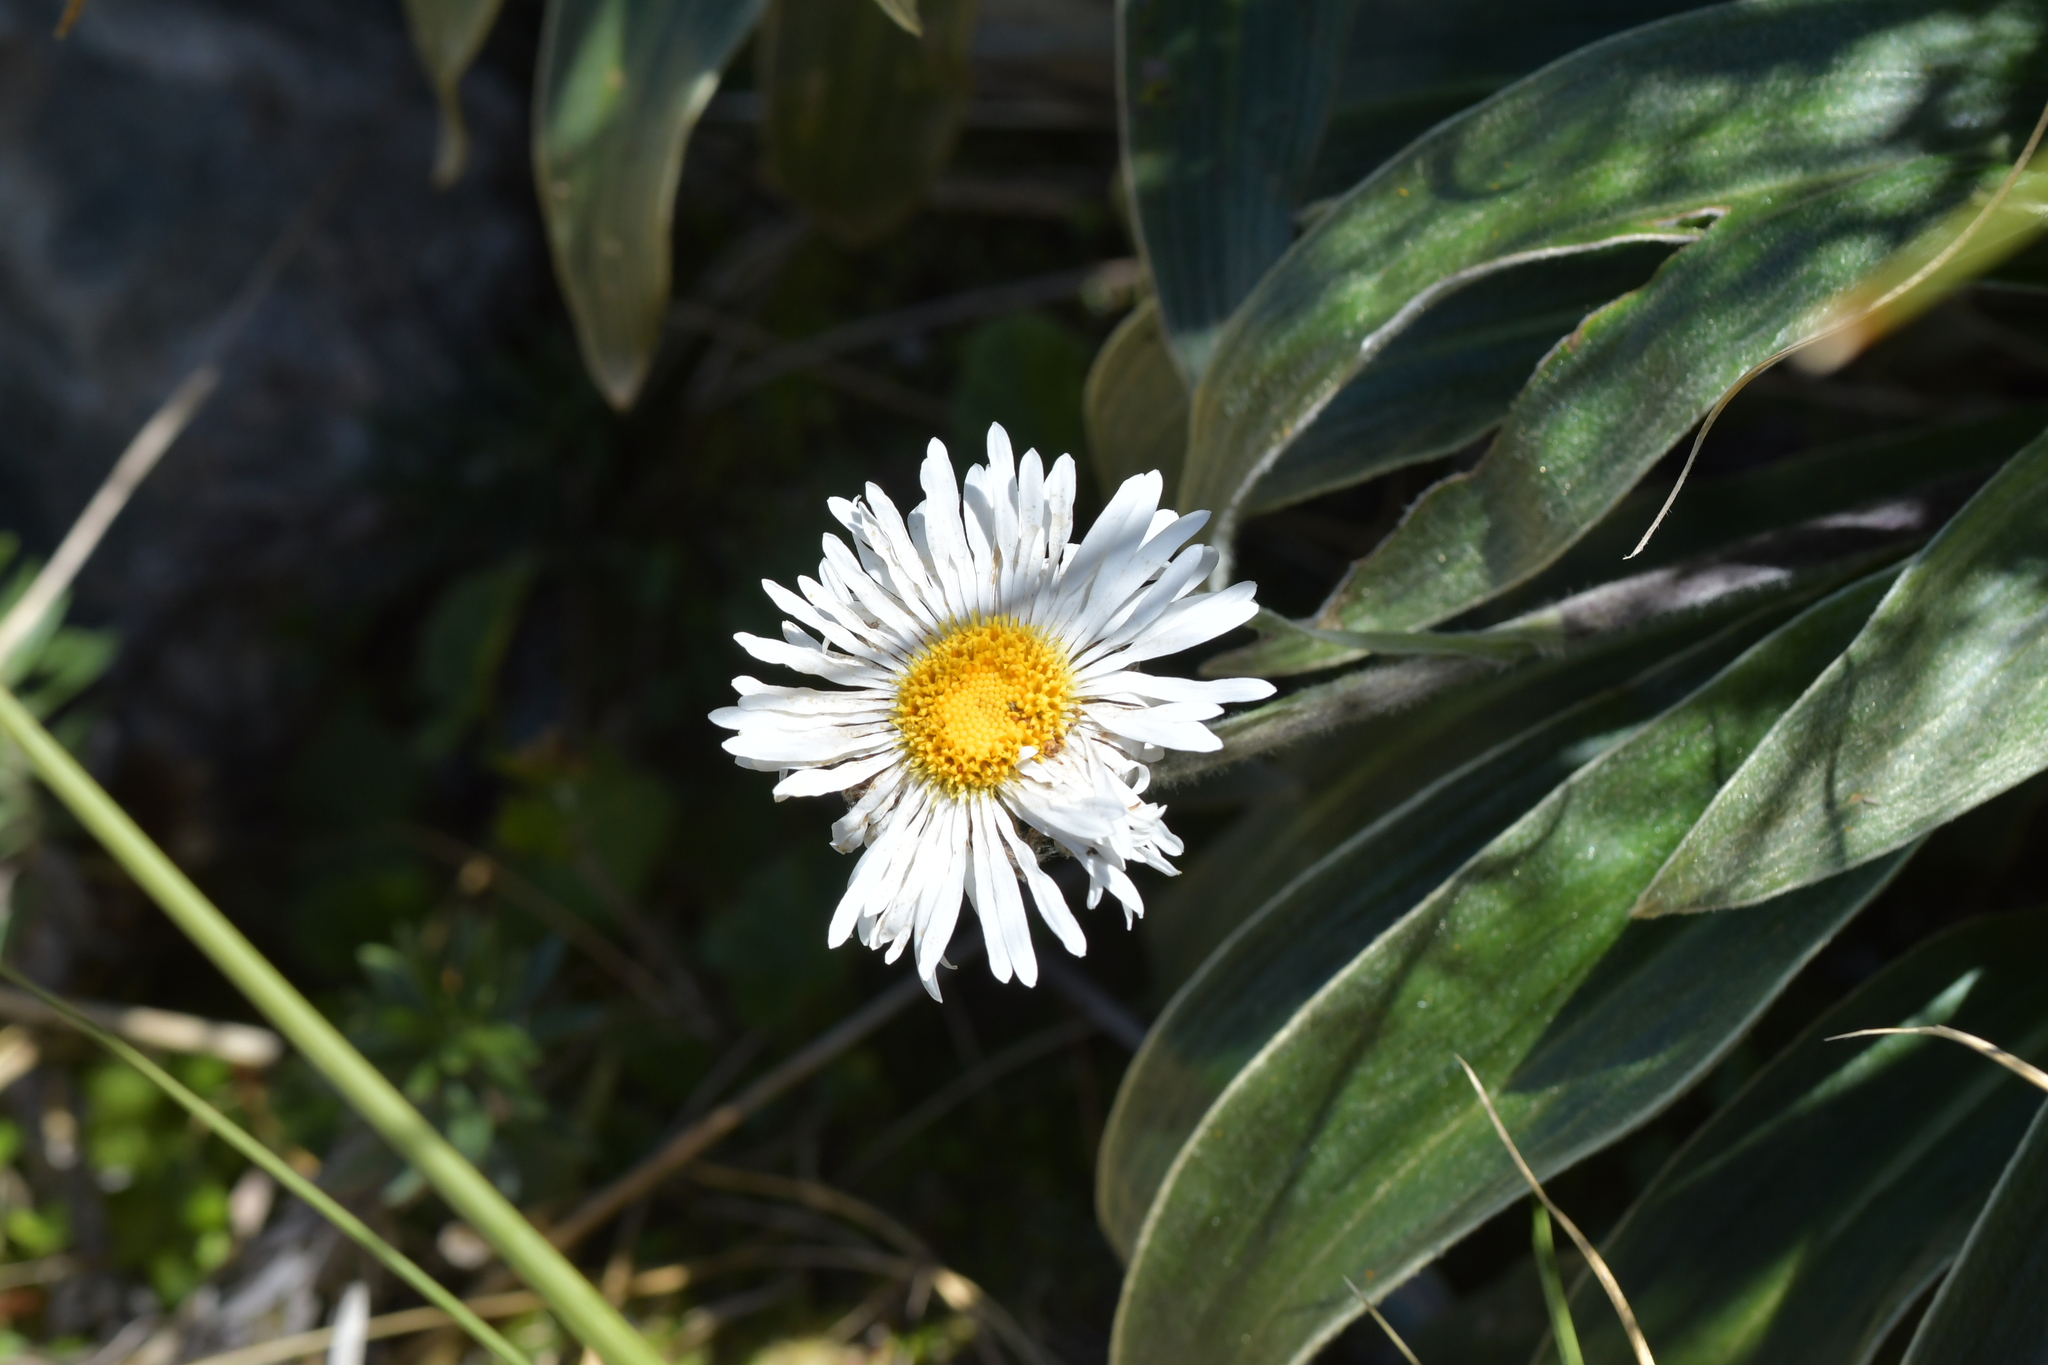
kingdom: Plantae
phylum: Tracheophyta
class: Magnoliopsida
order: Asterales
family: Asteraceae
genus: Celmisia
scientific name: Celmisia verbascifolia
